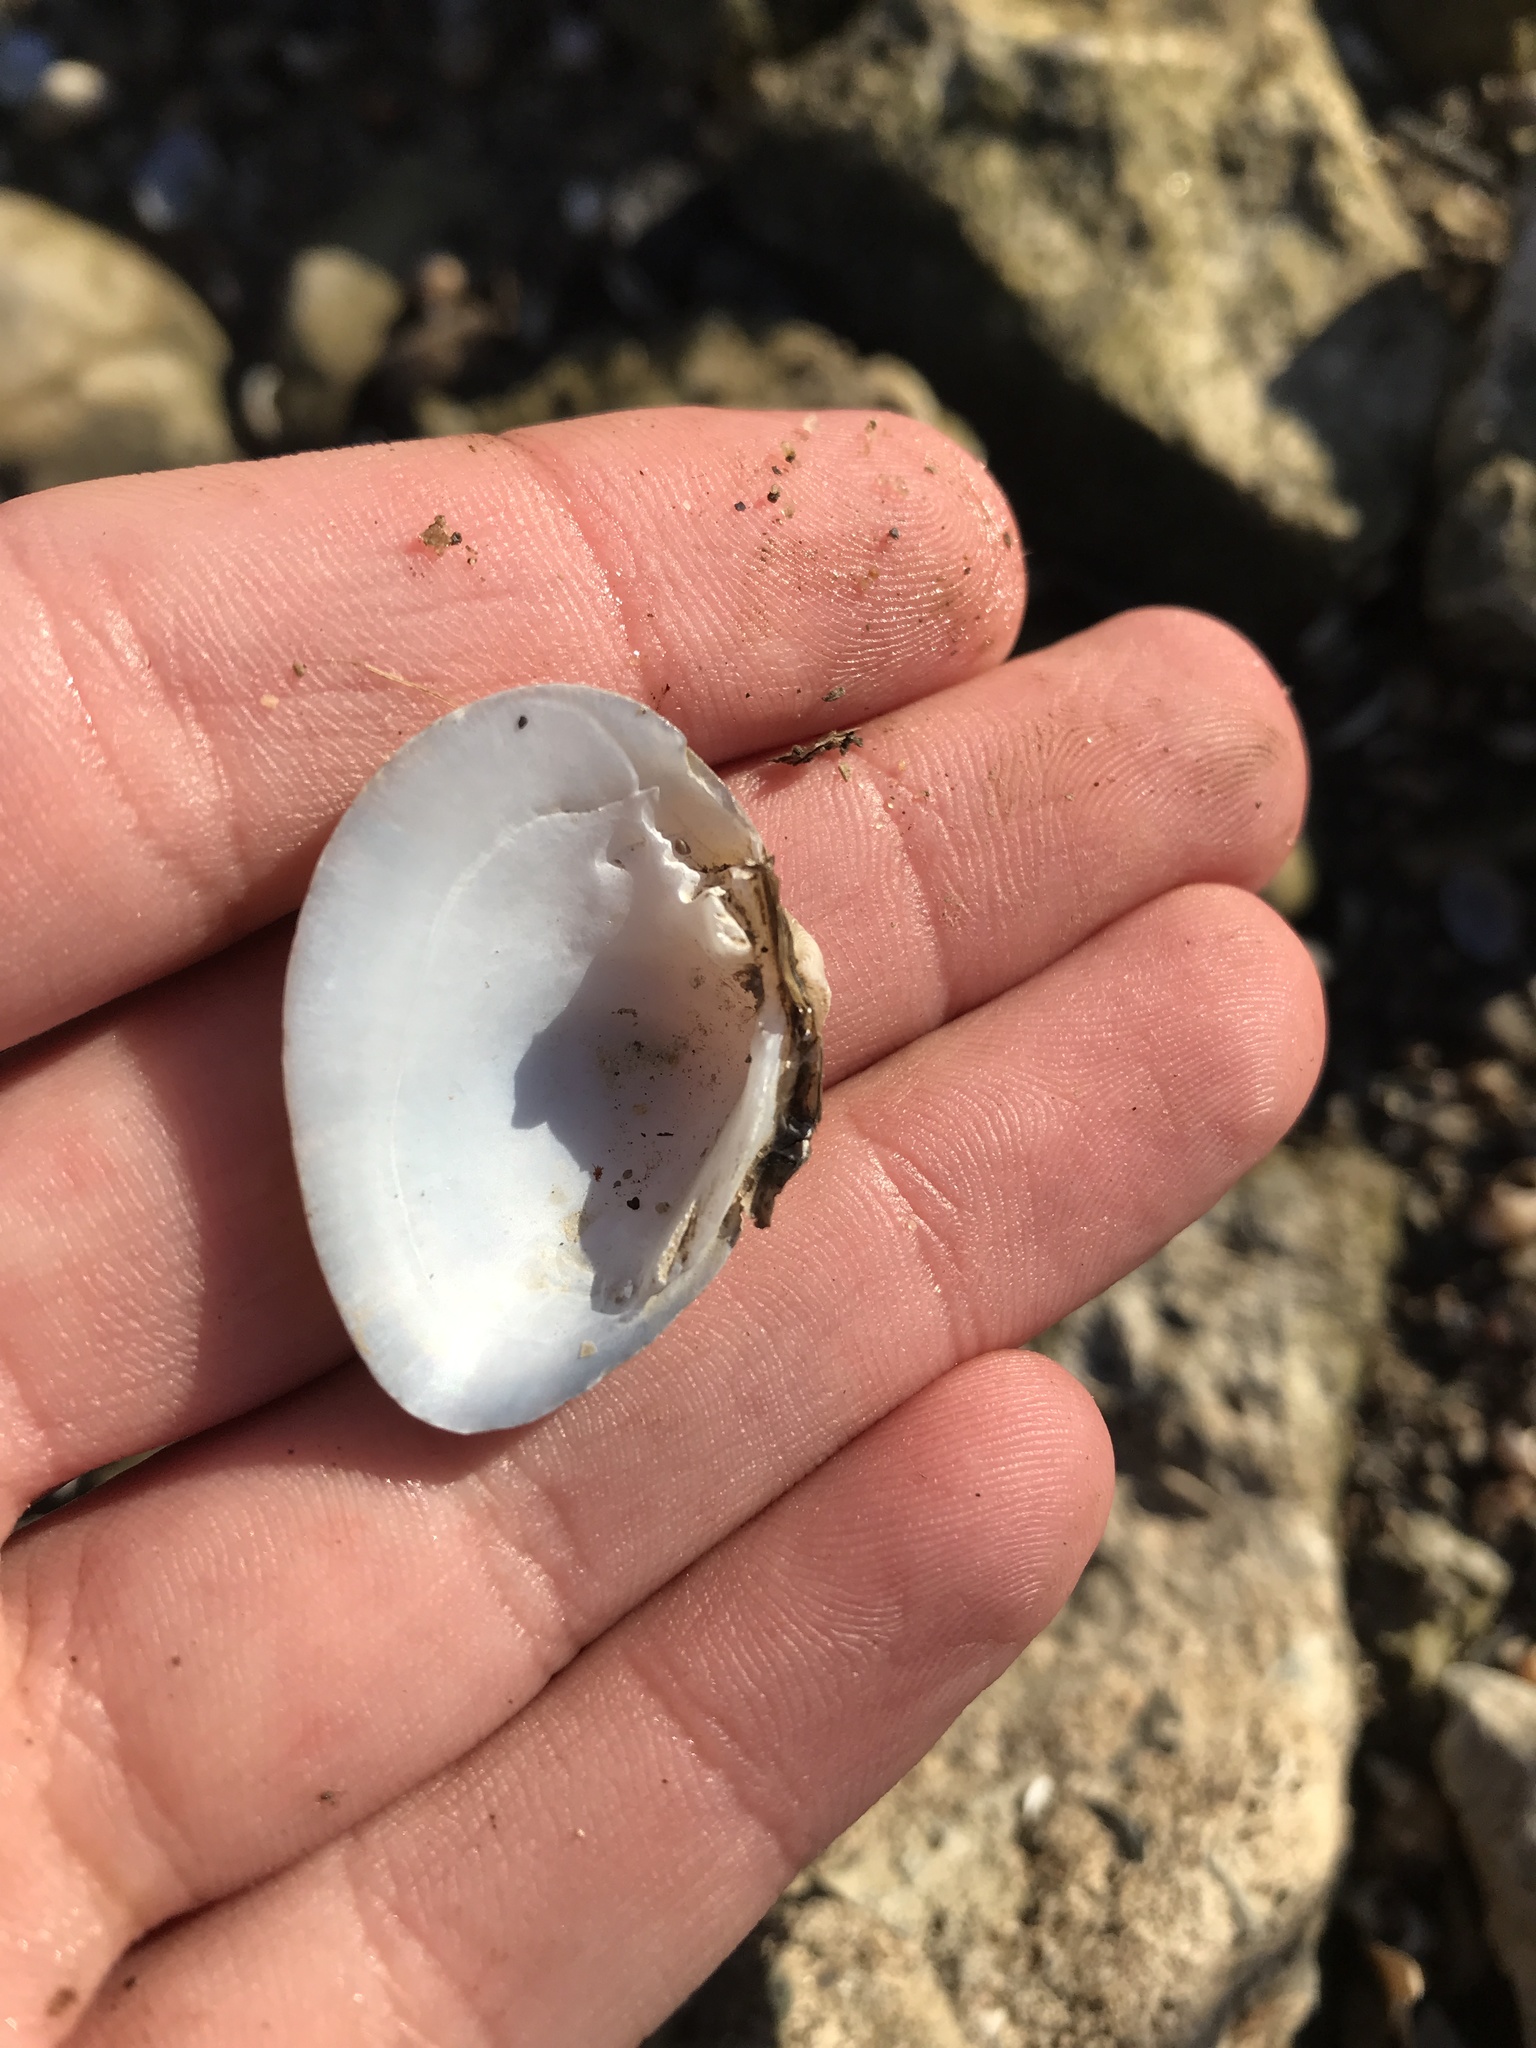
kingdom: Animalia
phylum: Mollusca
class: Bivalvia
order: Unionida
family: Unionidae
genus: Truncilla
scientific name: Truncilla truncata
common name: Deertoe
